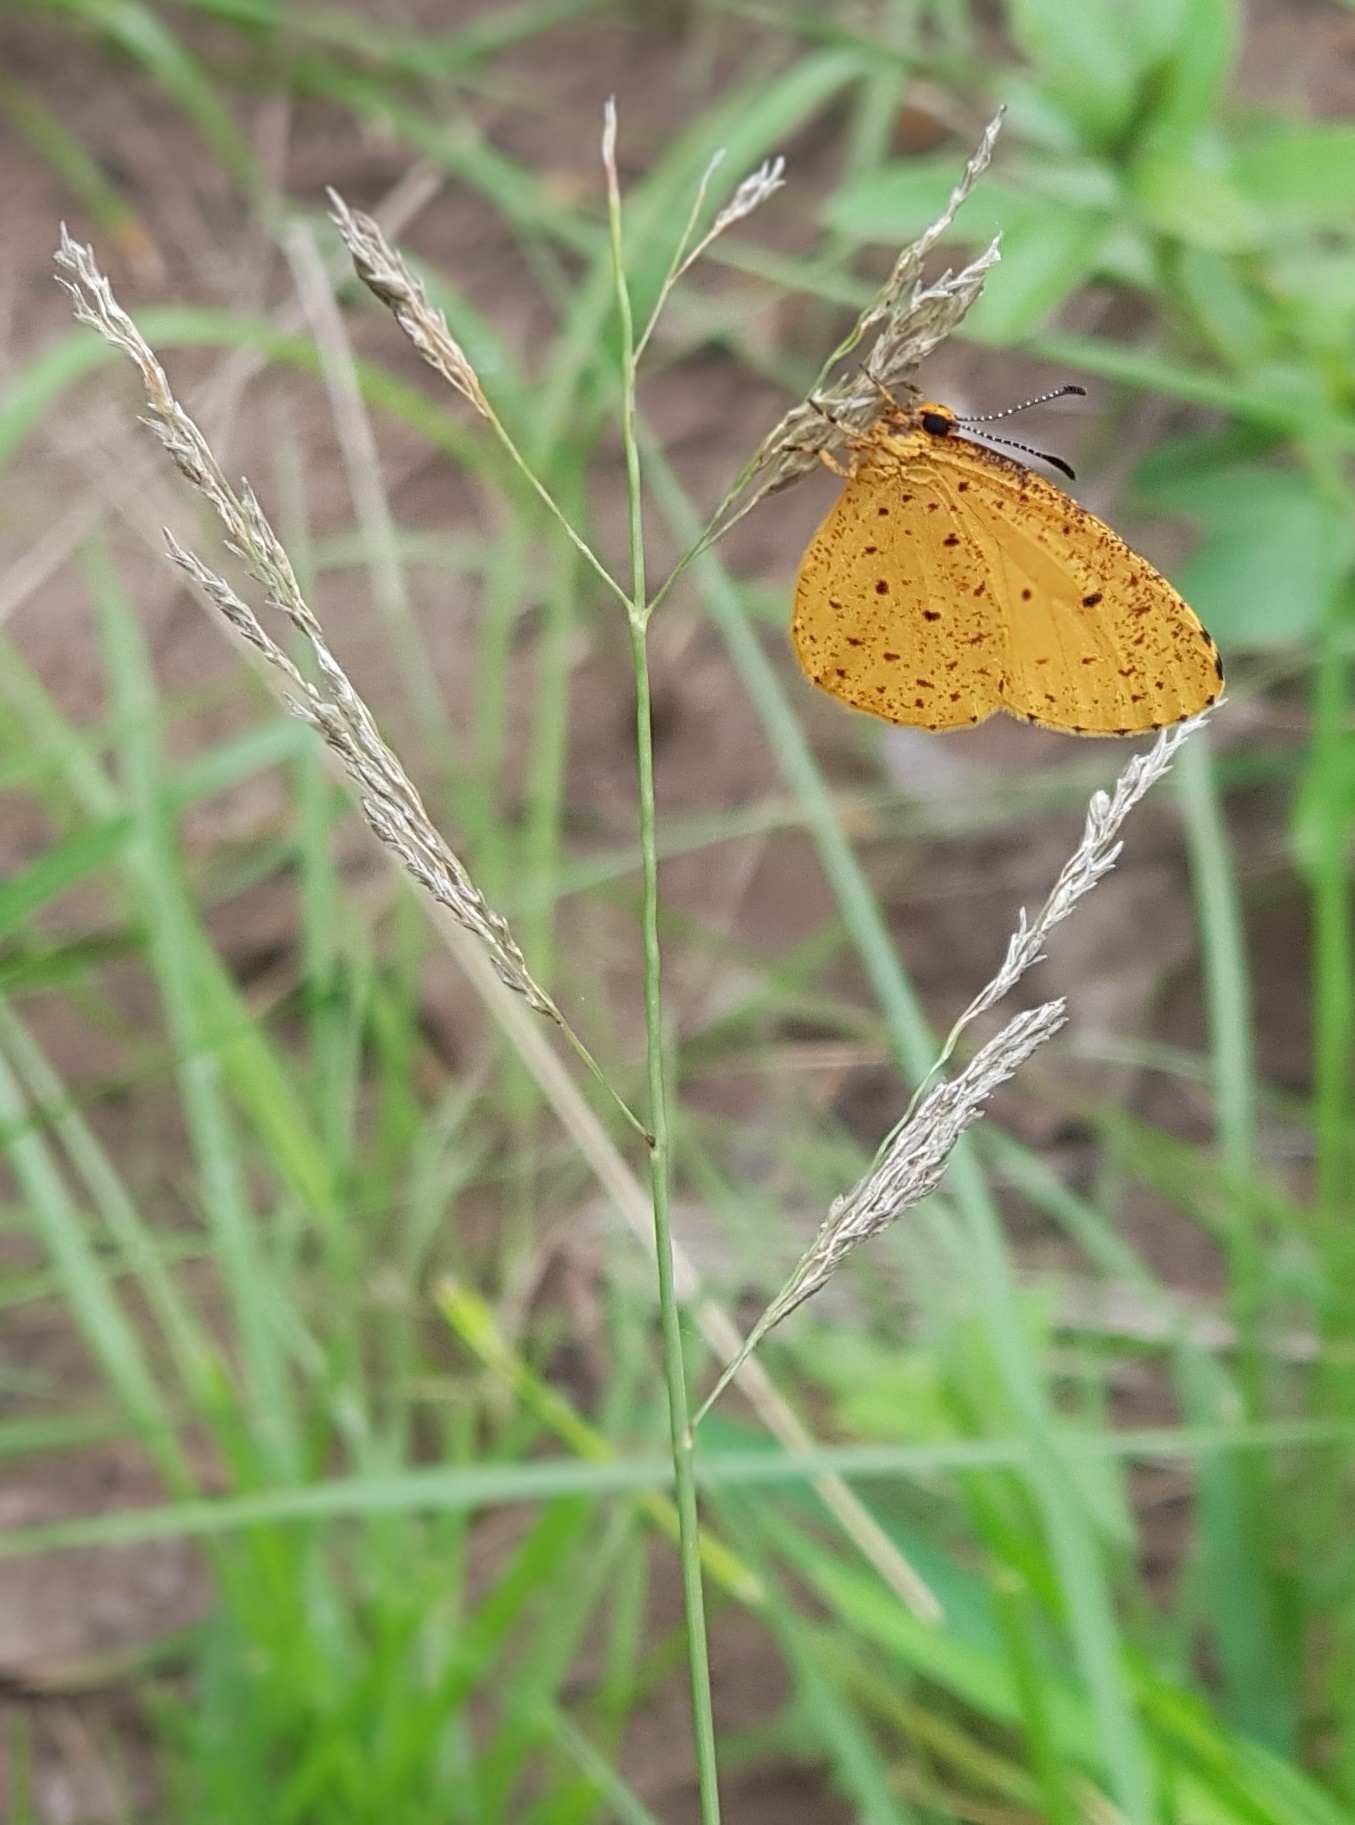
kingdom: Animalia
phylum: Arthropoda
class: Insecta
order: Lepidoptera
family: Lycaenidae
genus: Pentila
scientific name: Pentila tropicalis
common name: Spotted buff
